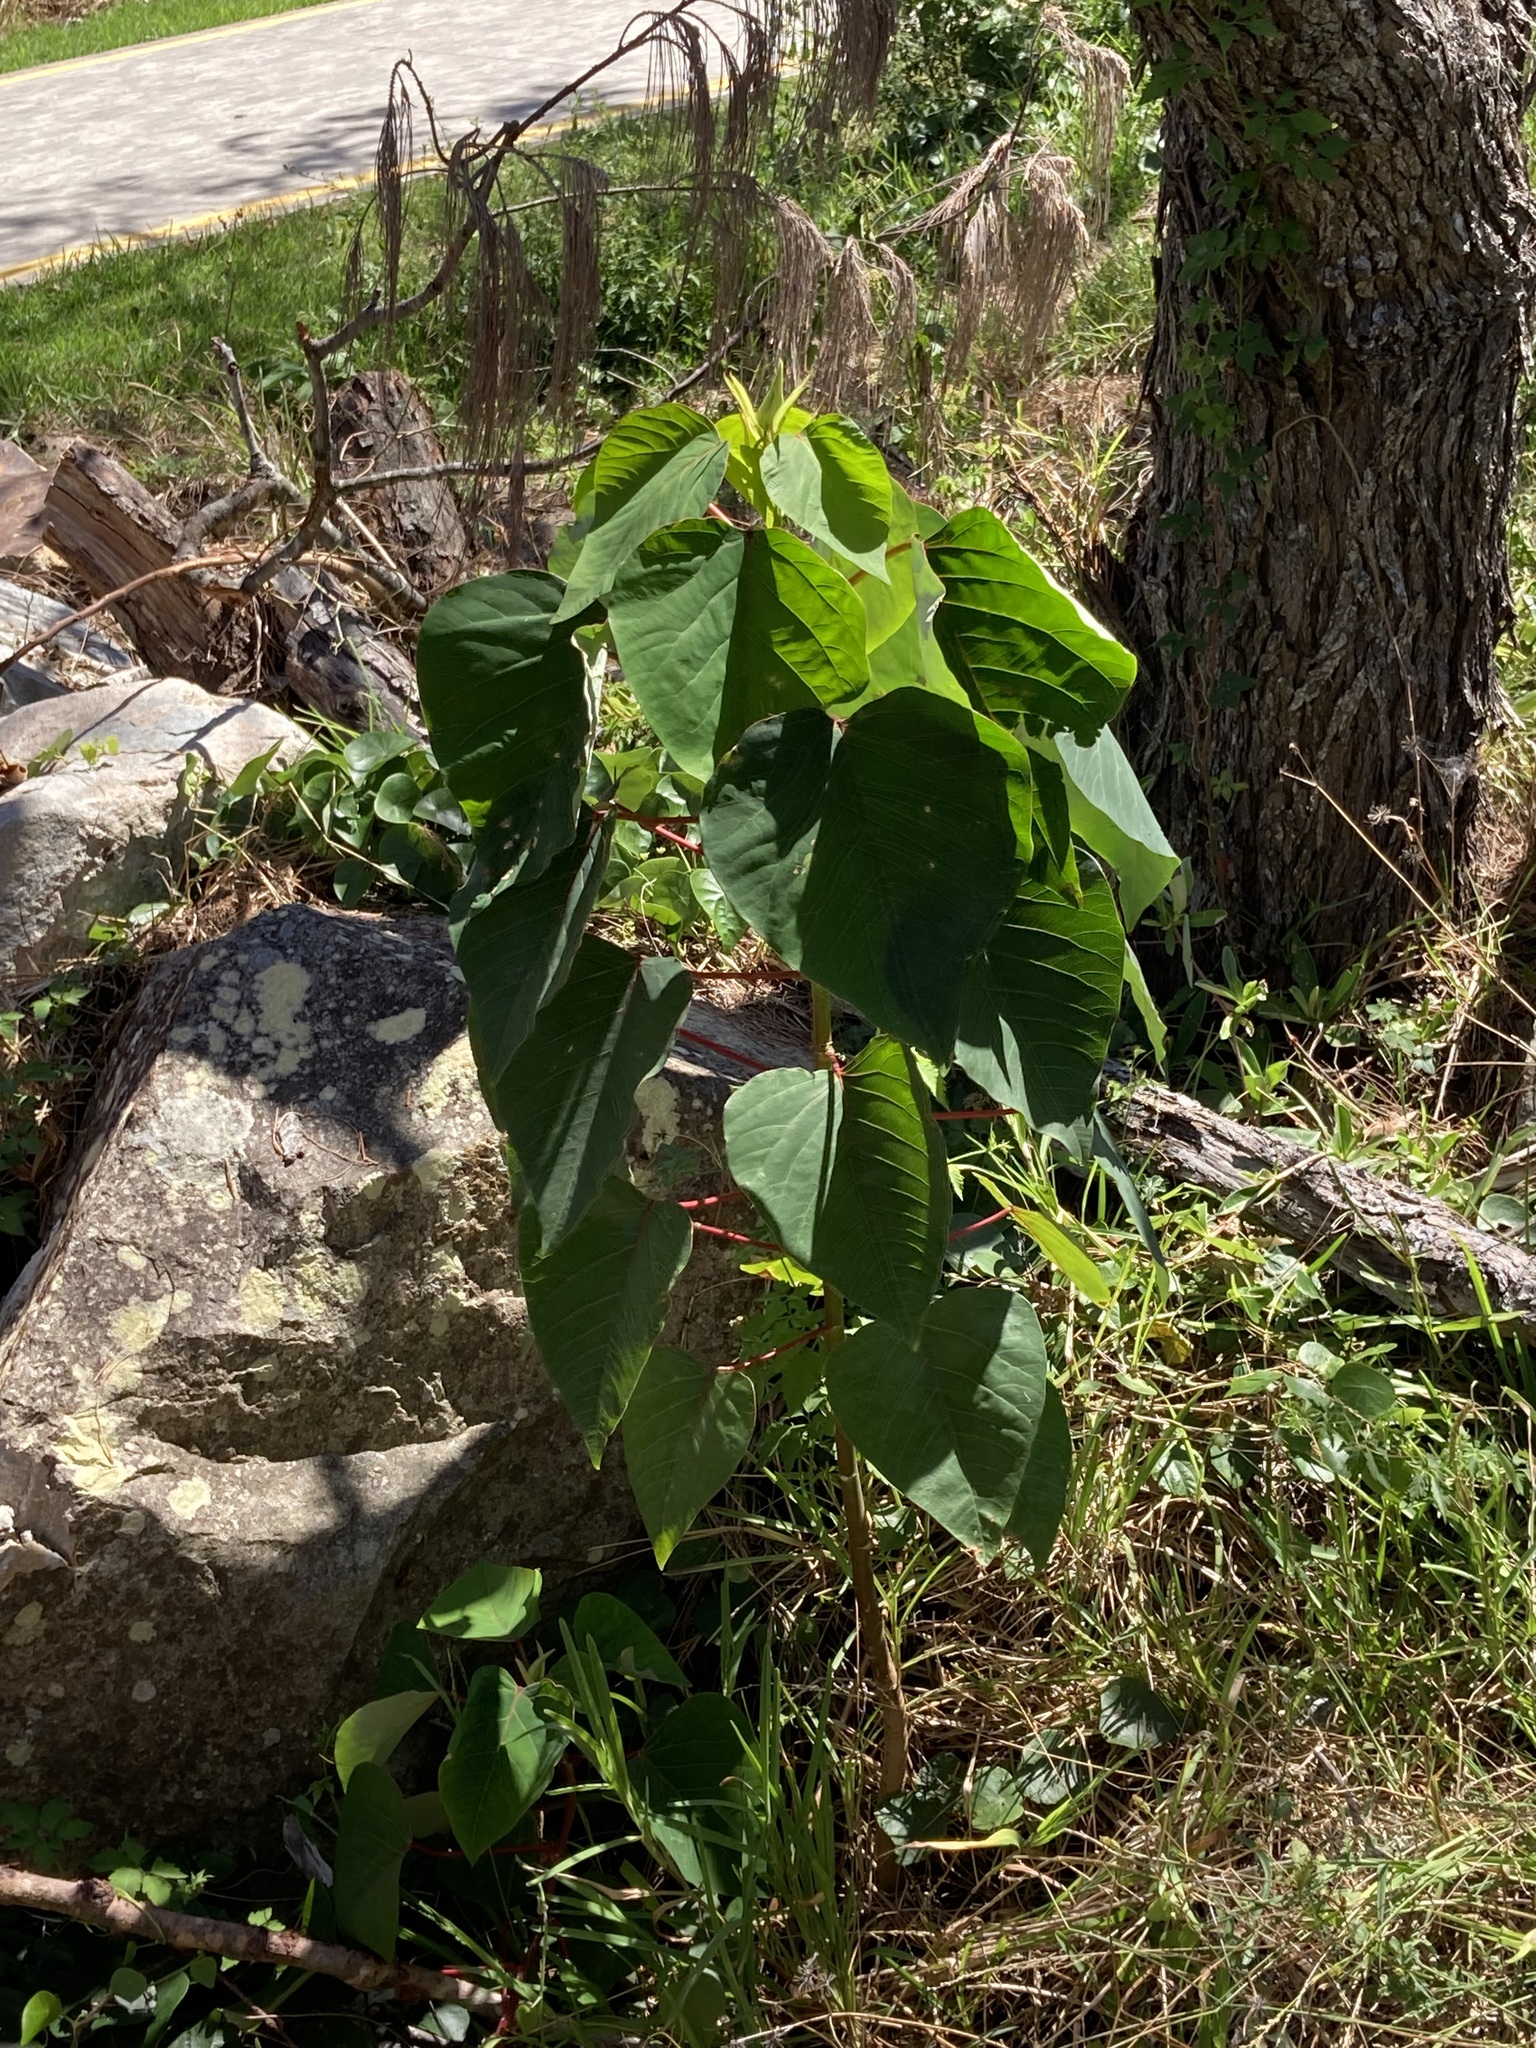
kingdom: Plantae
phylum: Tracheophyta
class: Magnoliopsida
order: Malpighiales
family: Euphorbiaceae
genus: Homalanthus
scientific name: Homalanthus populifolius
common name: Queensland poplar
